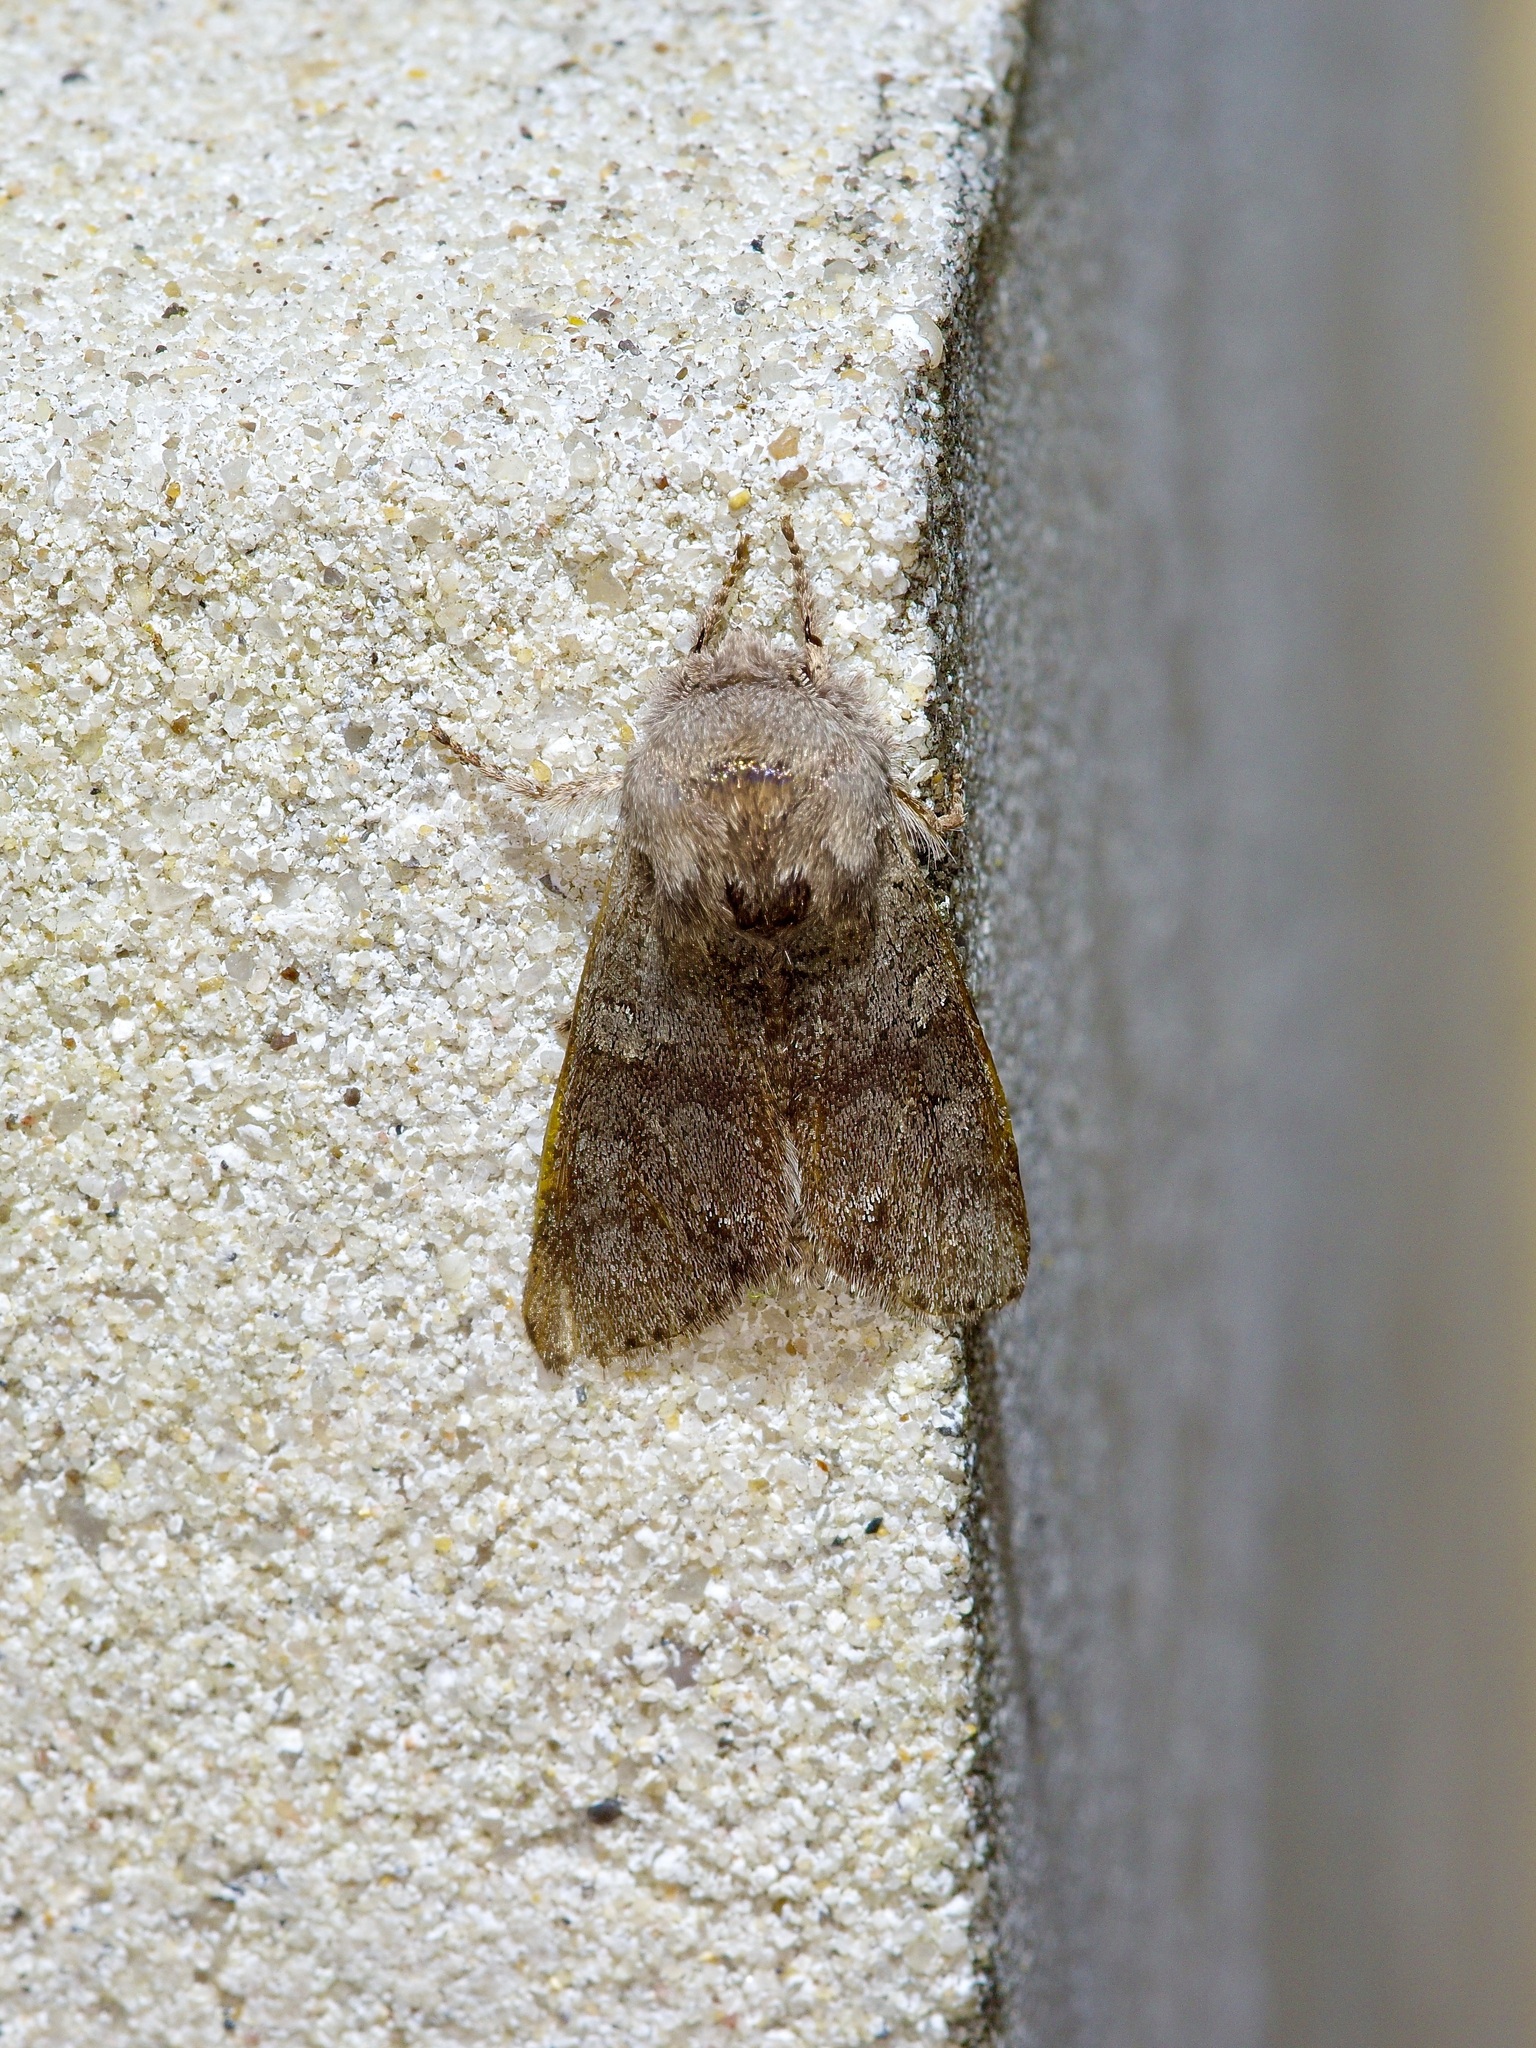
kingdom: Animalia
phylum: Arthropoda
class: Insecta
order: Lepidoptera
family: Noctuidae
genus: Psaphida
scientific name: Psaphida rolandi
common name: Roland's sallow
